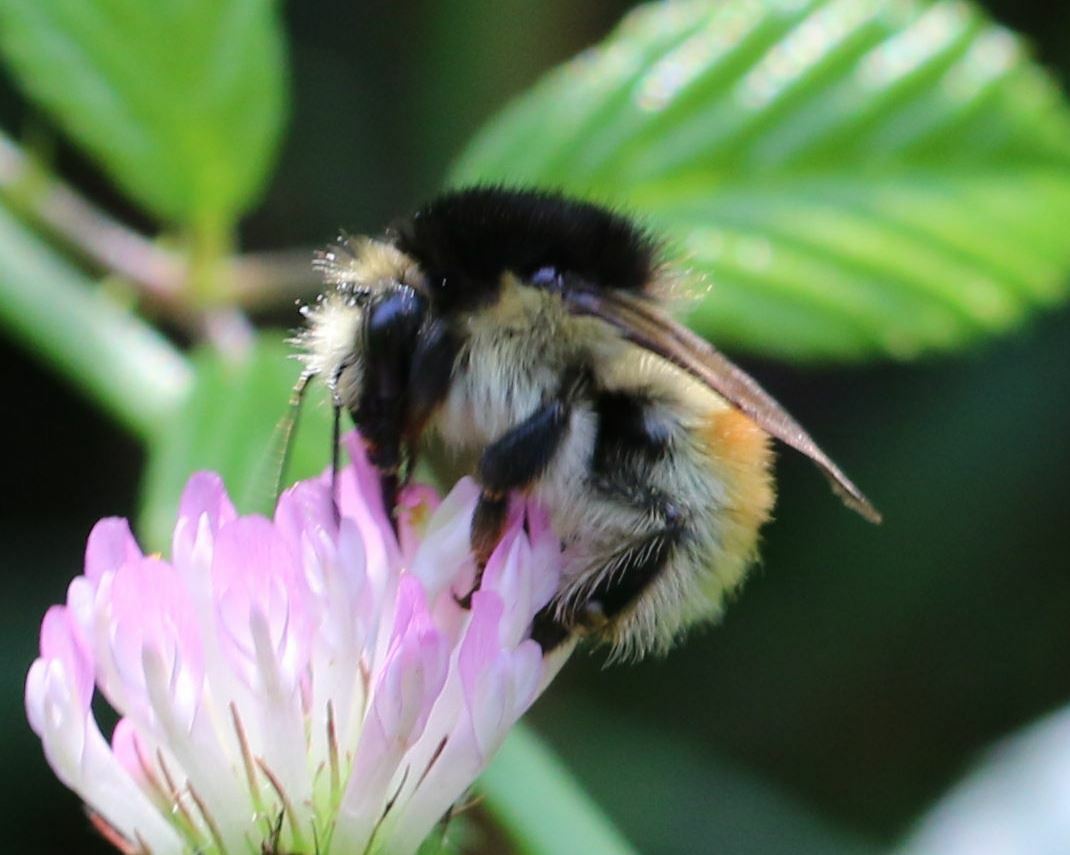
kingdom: Animalia
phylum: Arthropoda
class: Insecta
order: Hymenoptera
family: Apidae
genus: Bombus
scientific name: Bombus humilis
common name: Brown-banded carder-bee
